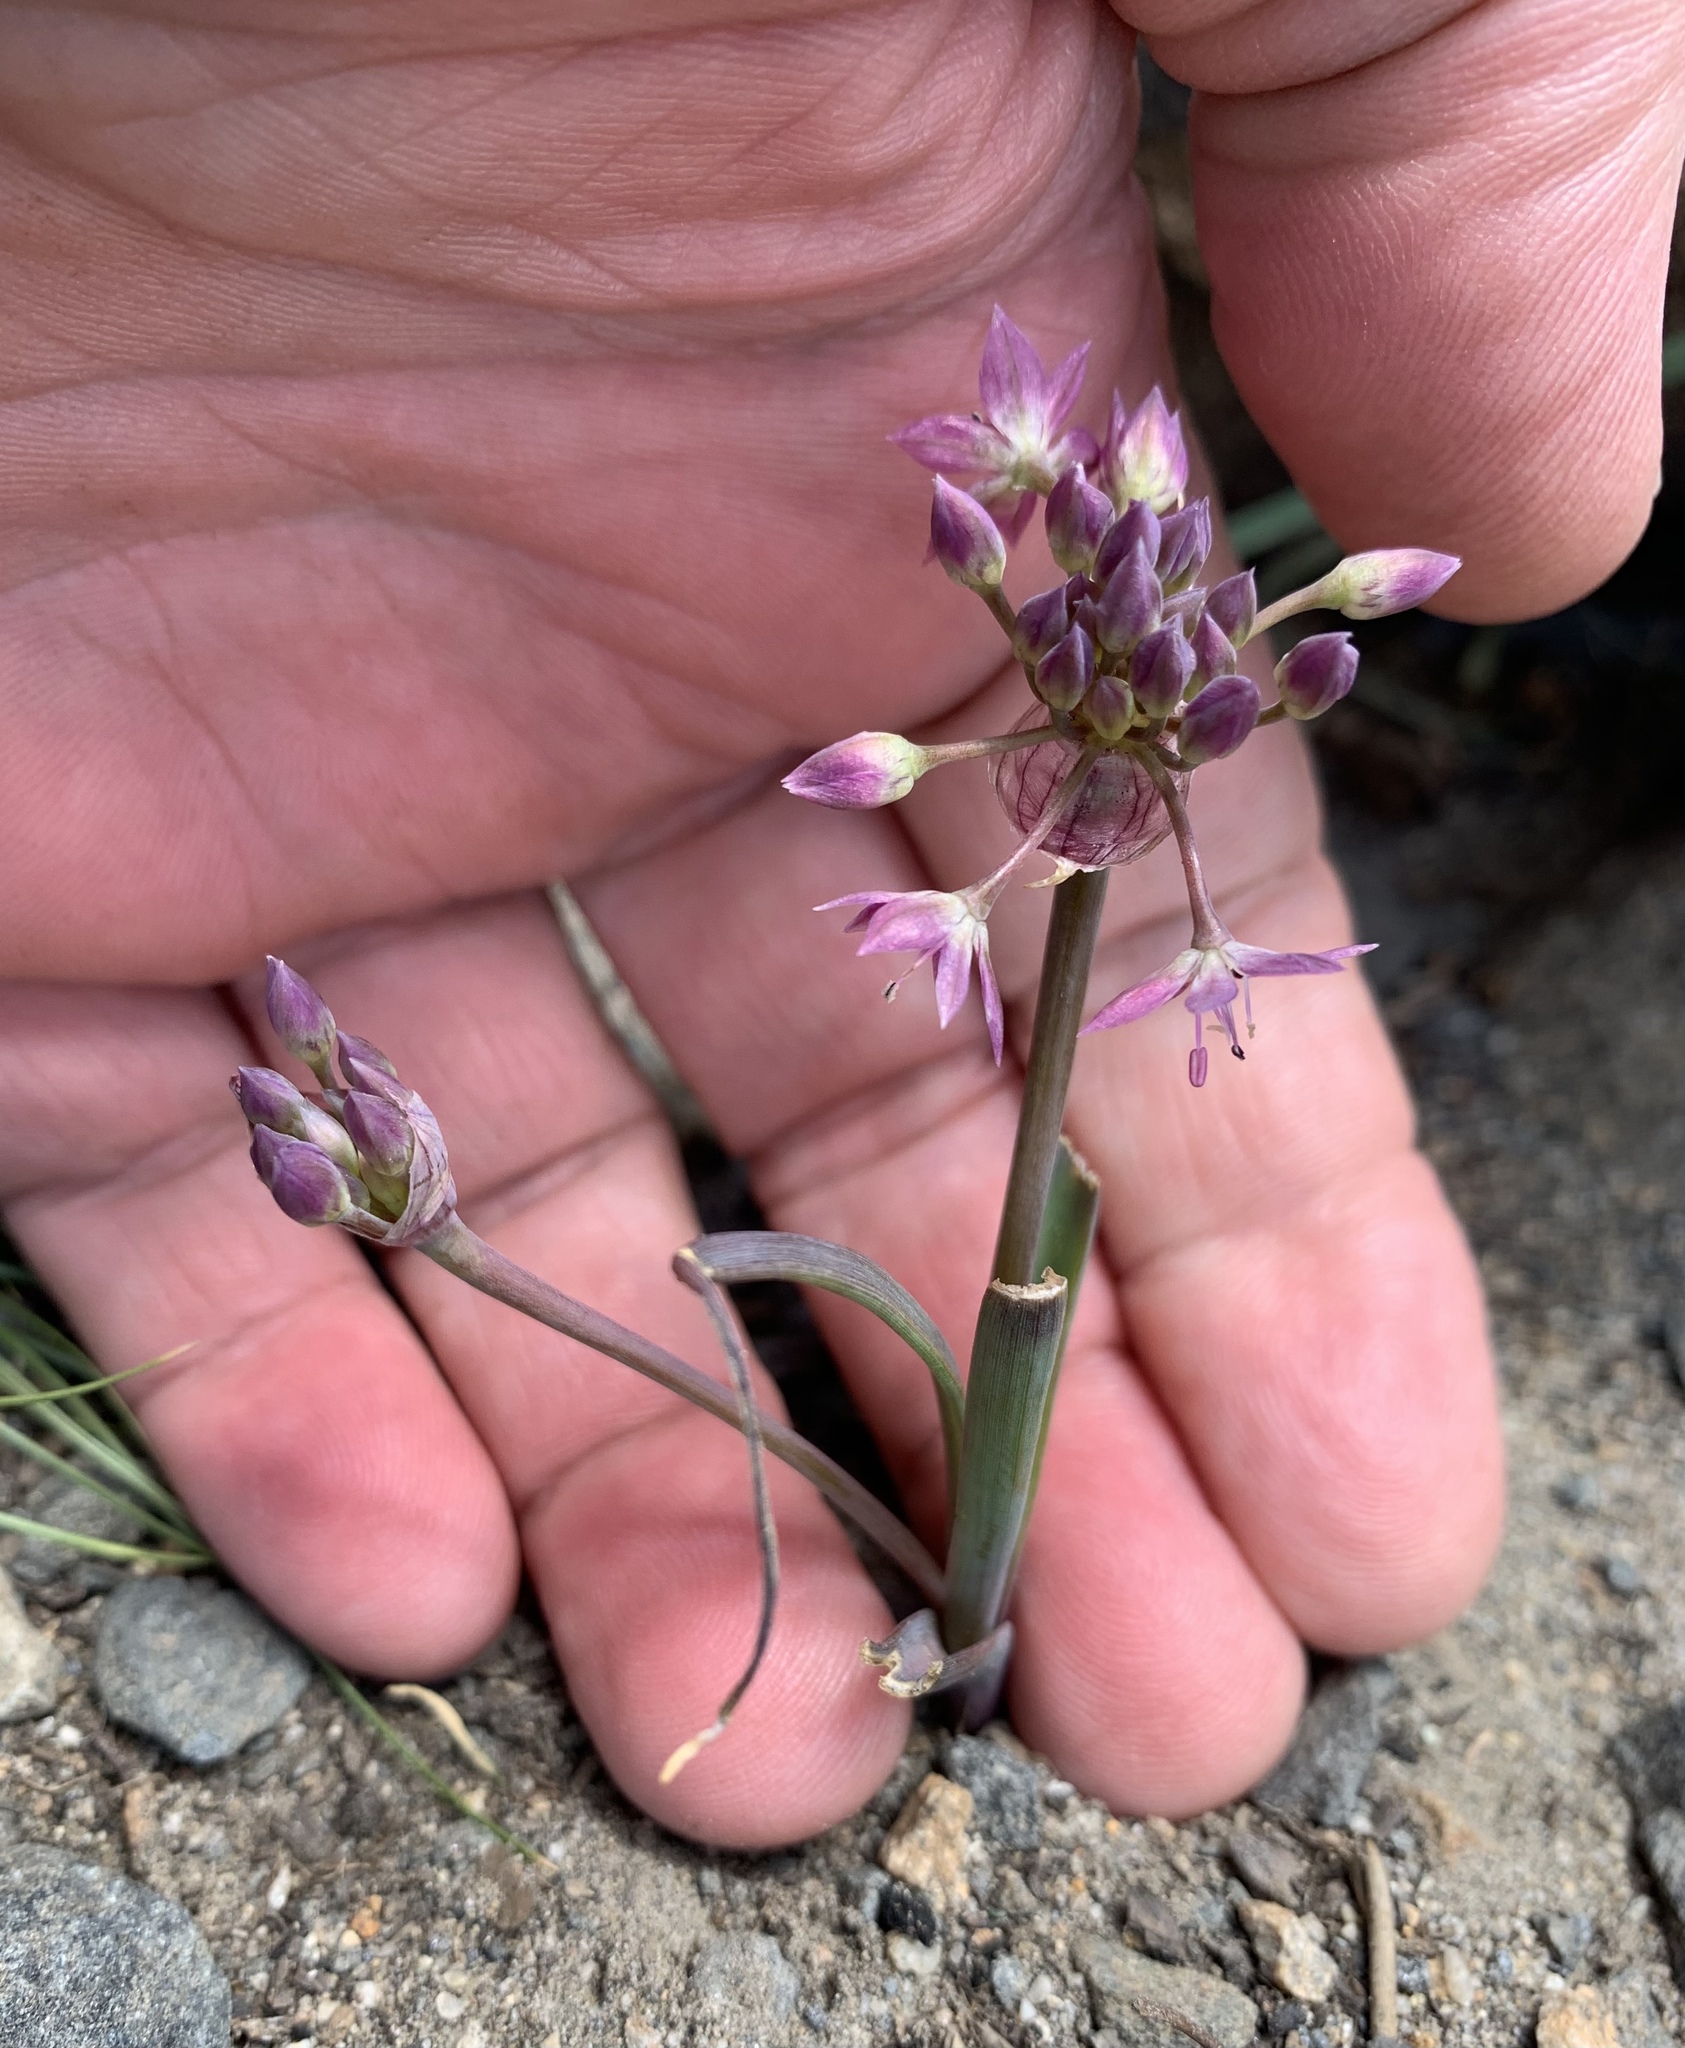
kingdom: Plantae
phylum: Tracheophyta
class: Liliopsida
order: Asparagales
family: Amaryllidaceae
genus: Allium
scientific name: Allium campanulatum
